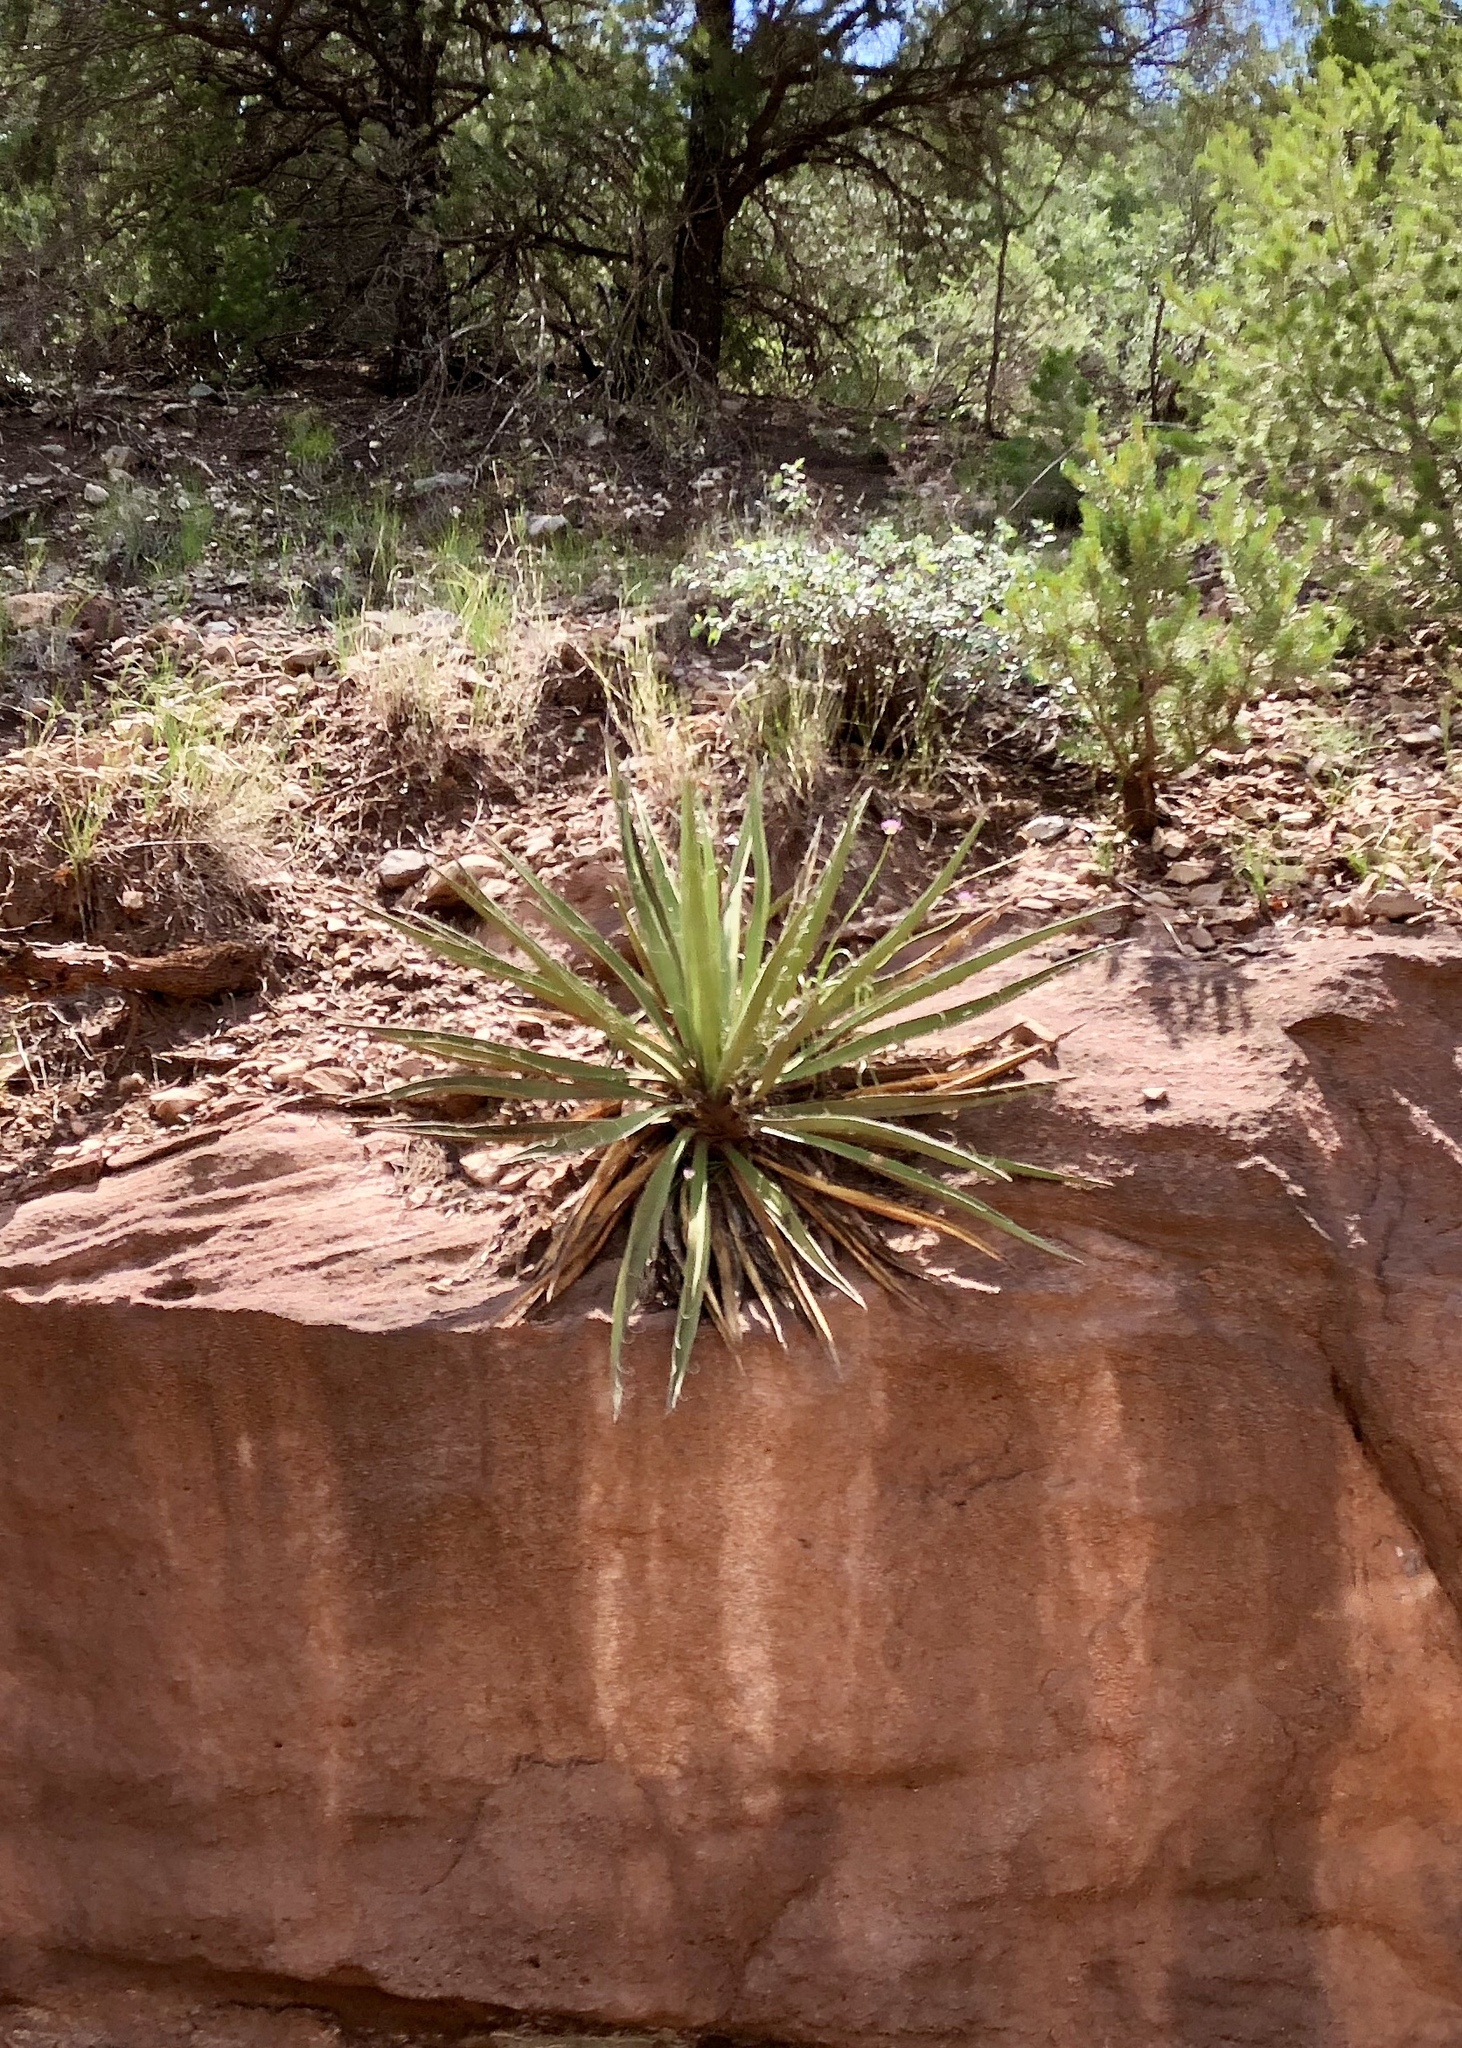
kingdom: Plantae
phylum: Tracheophyta
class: Liliopsida
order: Asparagales
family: Asparagaceae
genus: Yucca
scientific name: Yucca baccata
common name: Banana yucca
